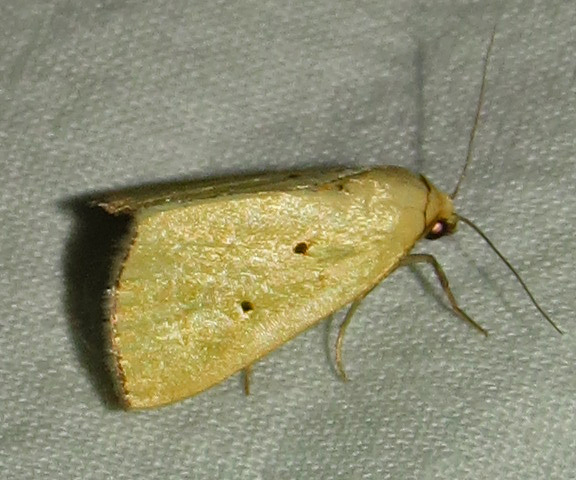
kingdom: Animalia
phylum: Arthropoda
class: Insecta
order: Lepidoptera
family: Noctuidae
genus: Marimatha
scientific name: Marimatha nigrofimbria
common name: Black-bordered lemon moth
